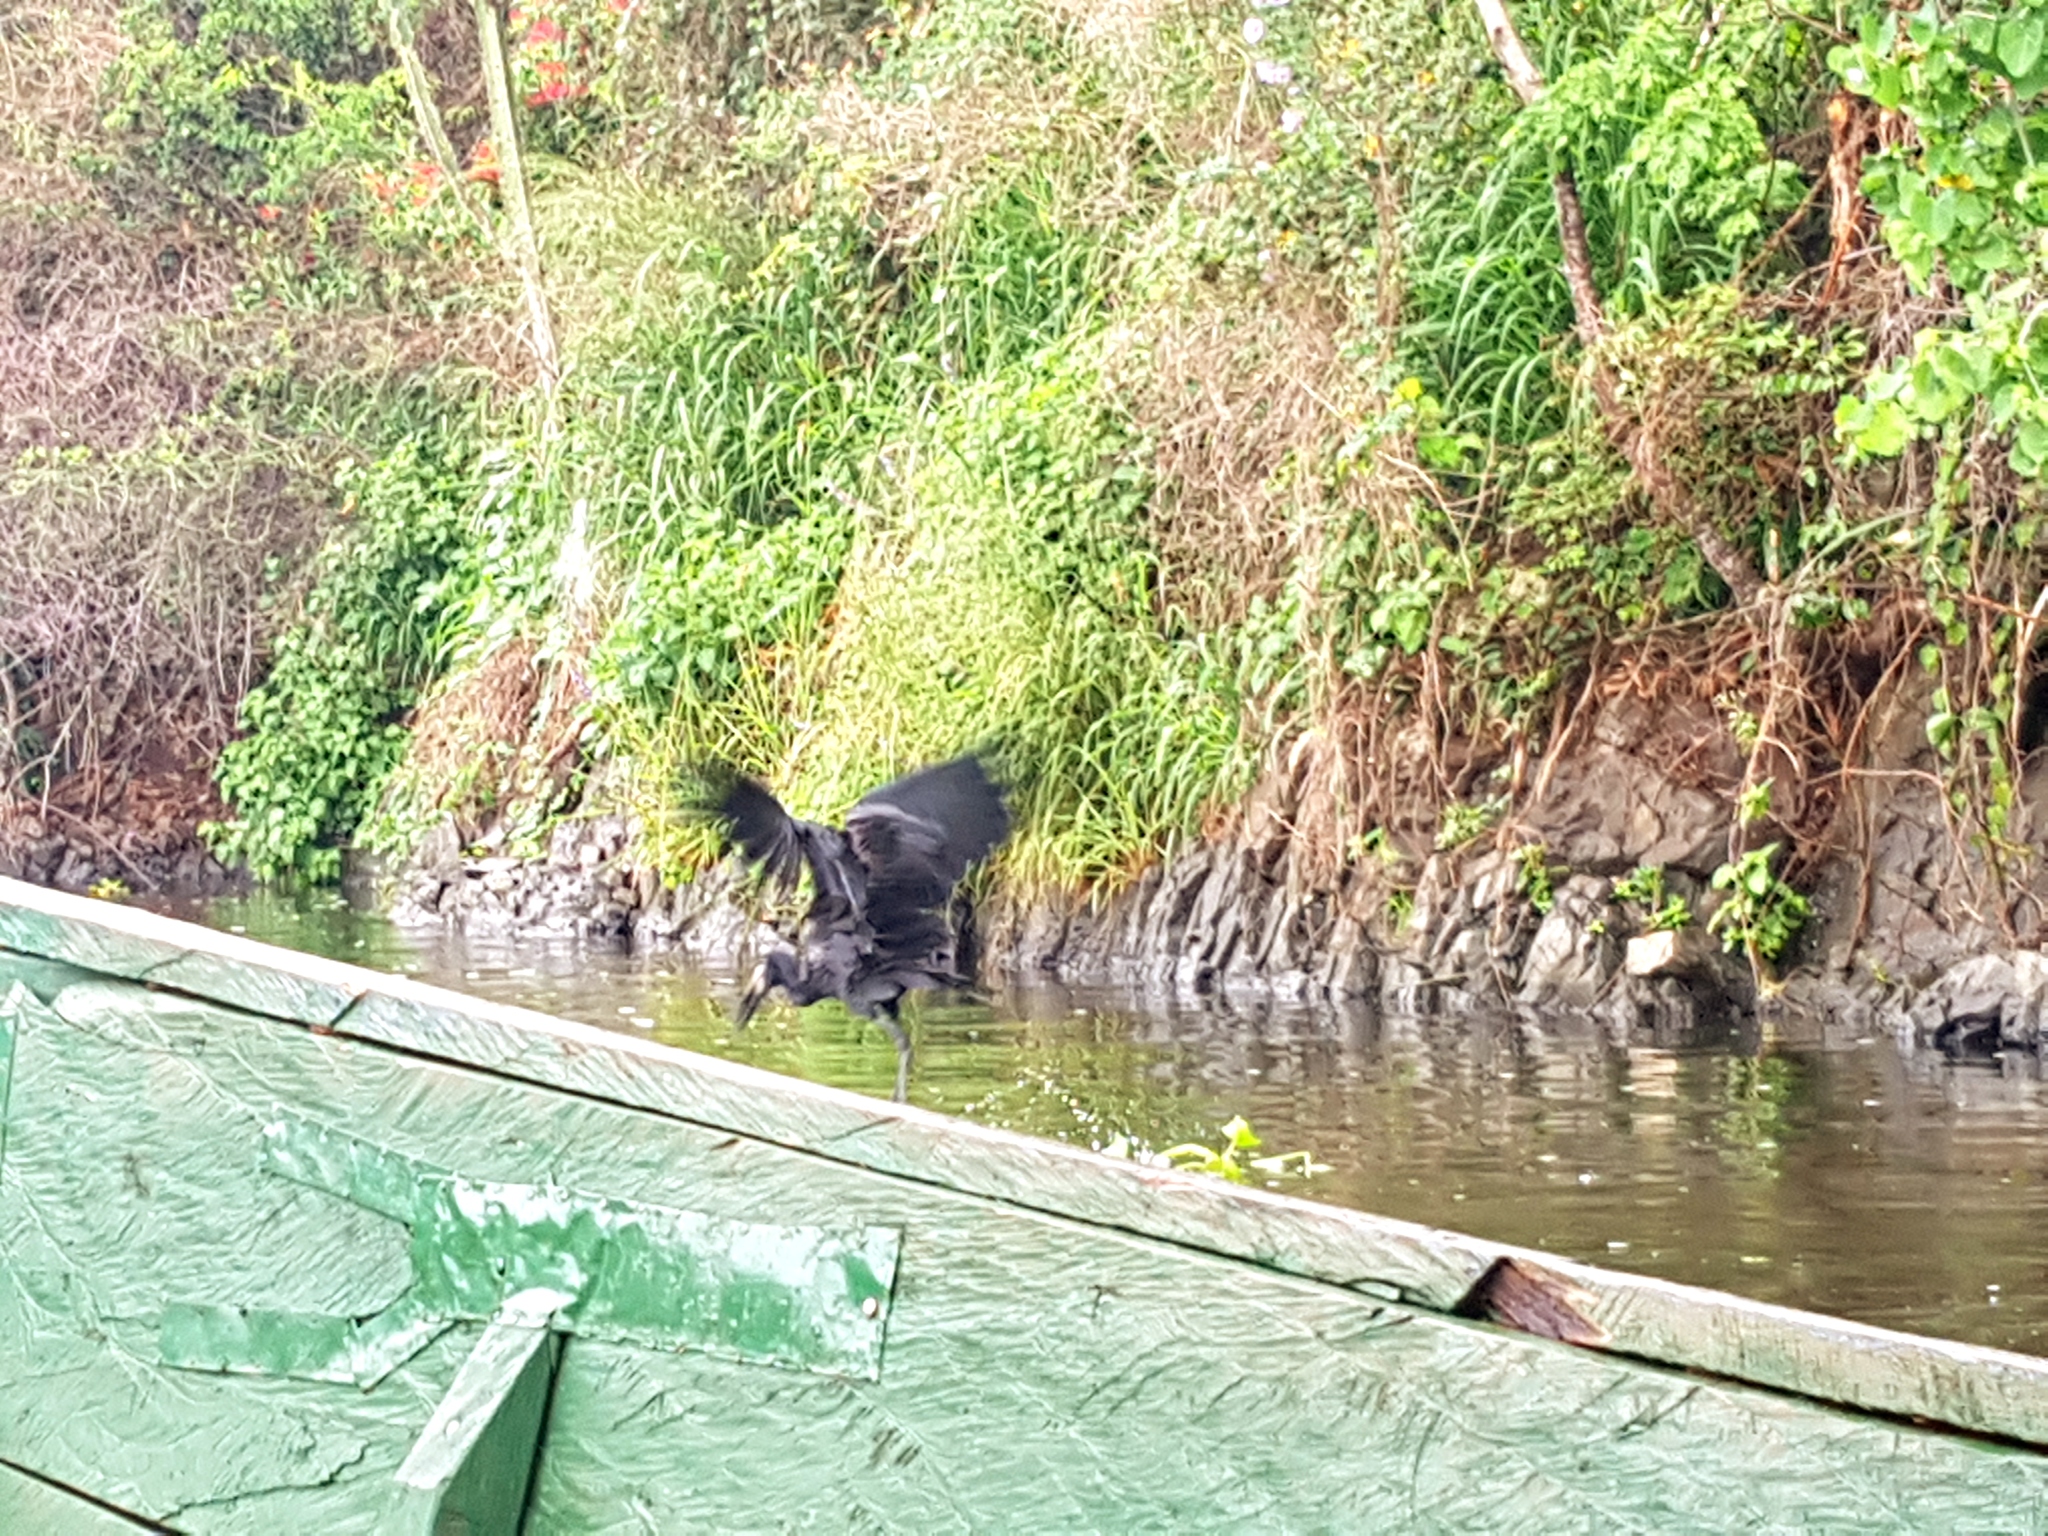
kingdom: Animalia
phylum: Chordata
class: Aves
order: Ciconiiformes
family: Ciconiidae
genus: Anastomus
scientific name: Anastomus lamelligerus
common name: African openbill
